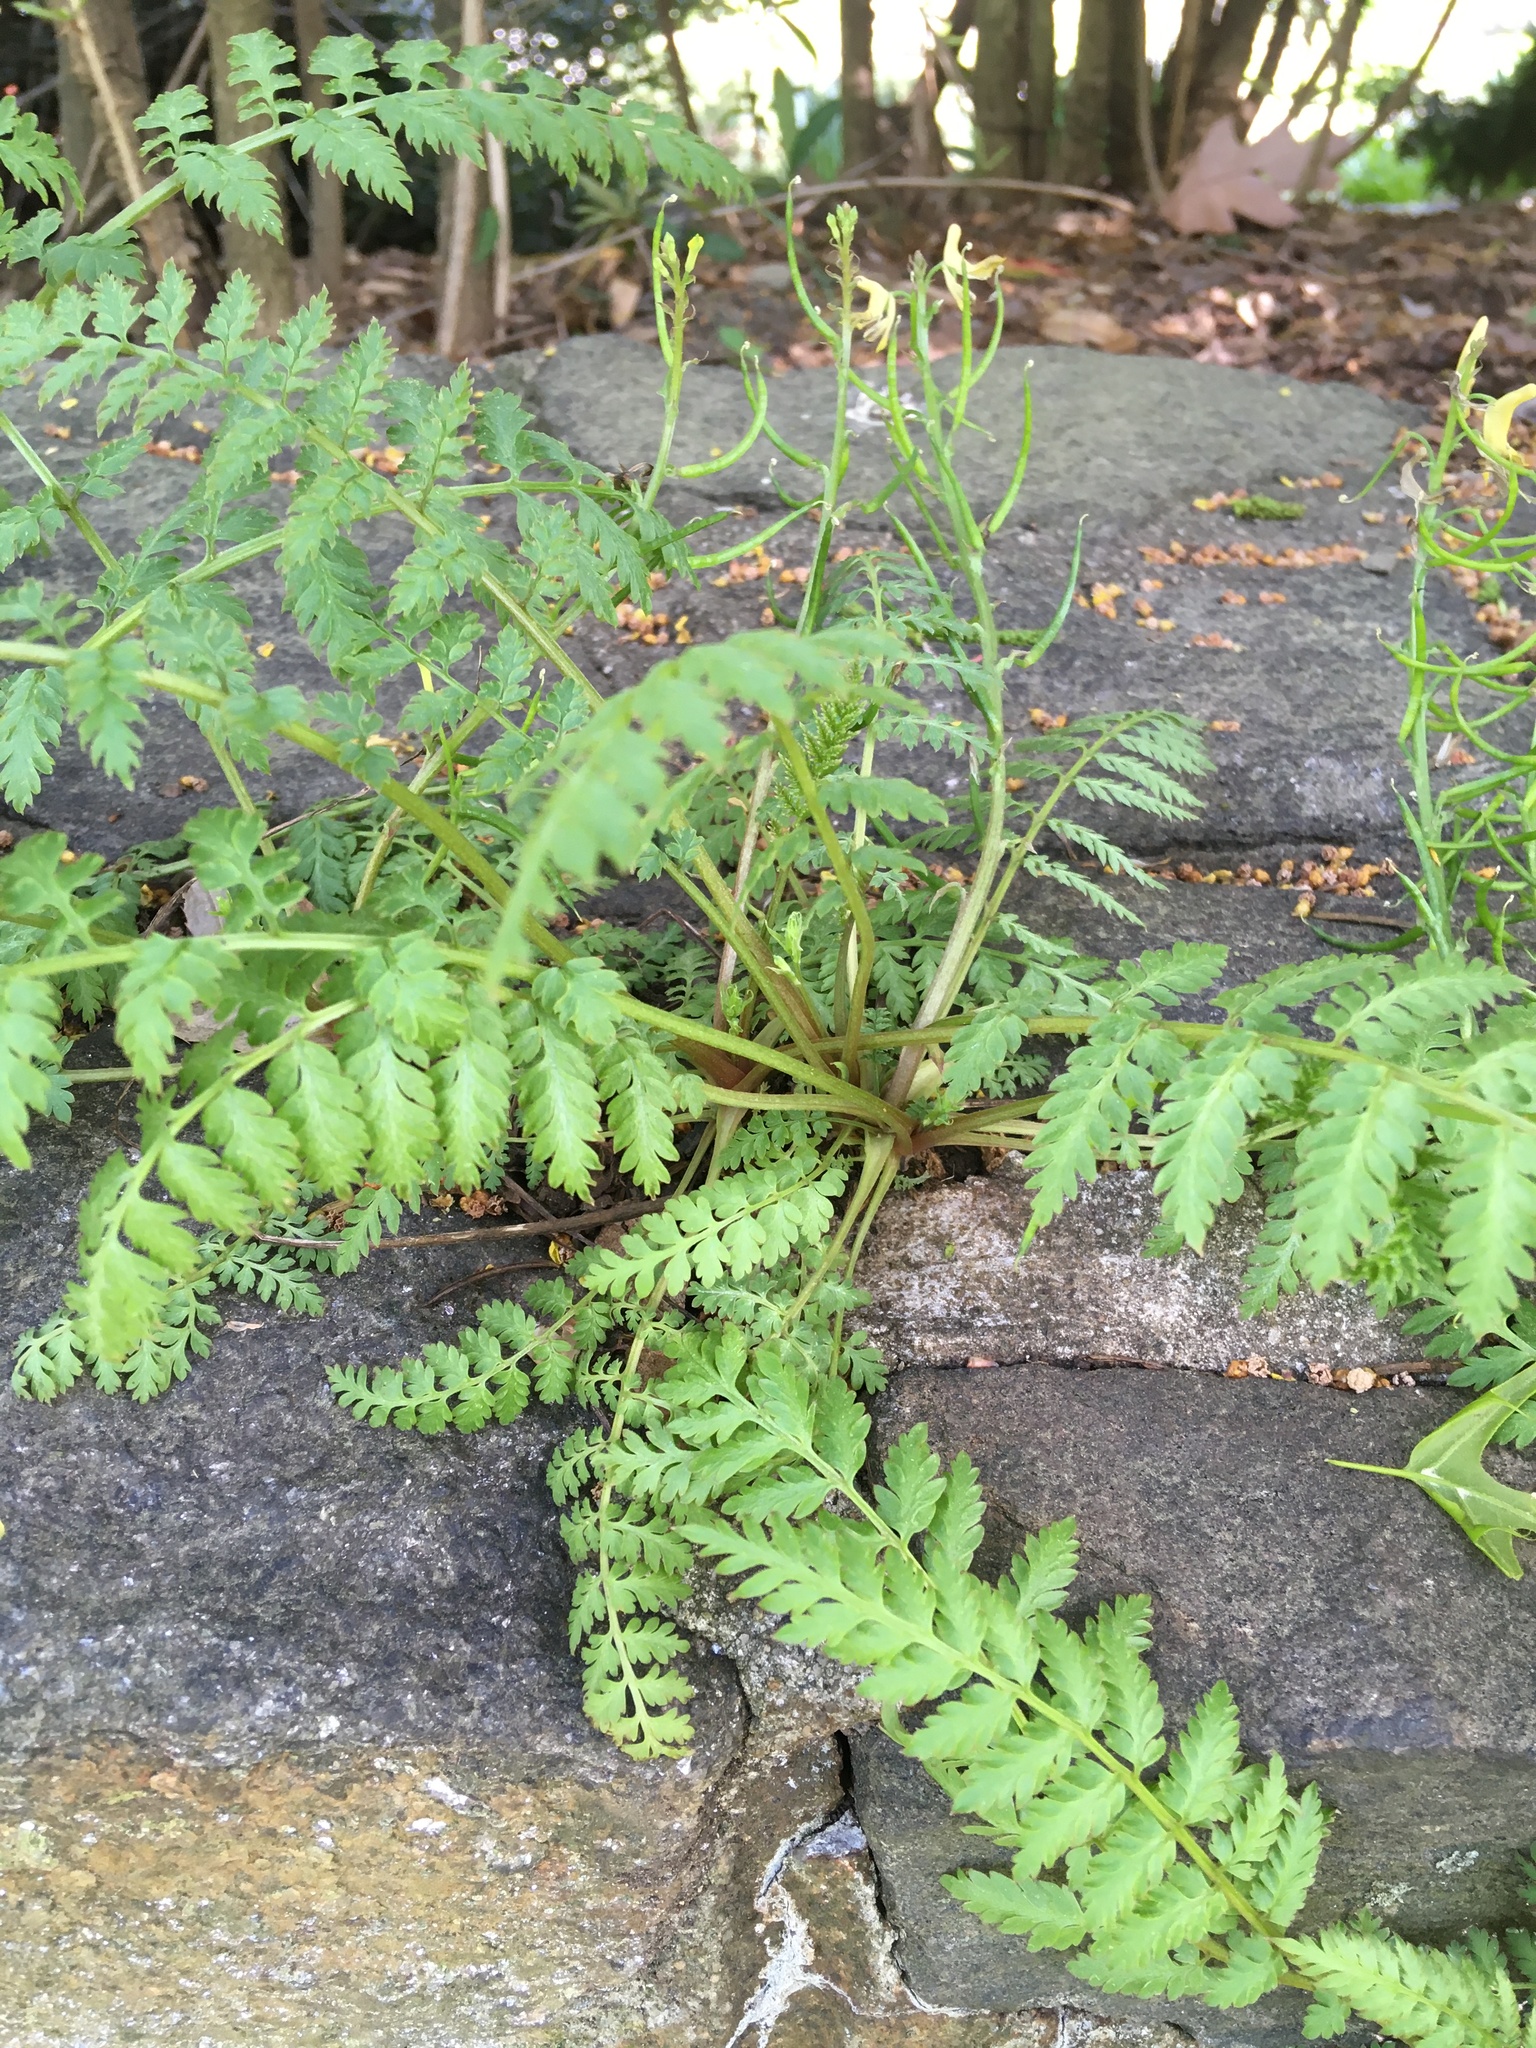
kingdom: Plantae
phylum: Tracheophyta
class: Magnoliopsida
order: Ranunculales
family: Papaveraceae
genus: Corydalis
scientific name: Corydalis cheilanthifolia
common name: Fern-leaved corydalis
